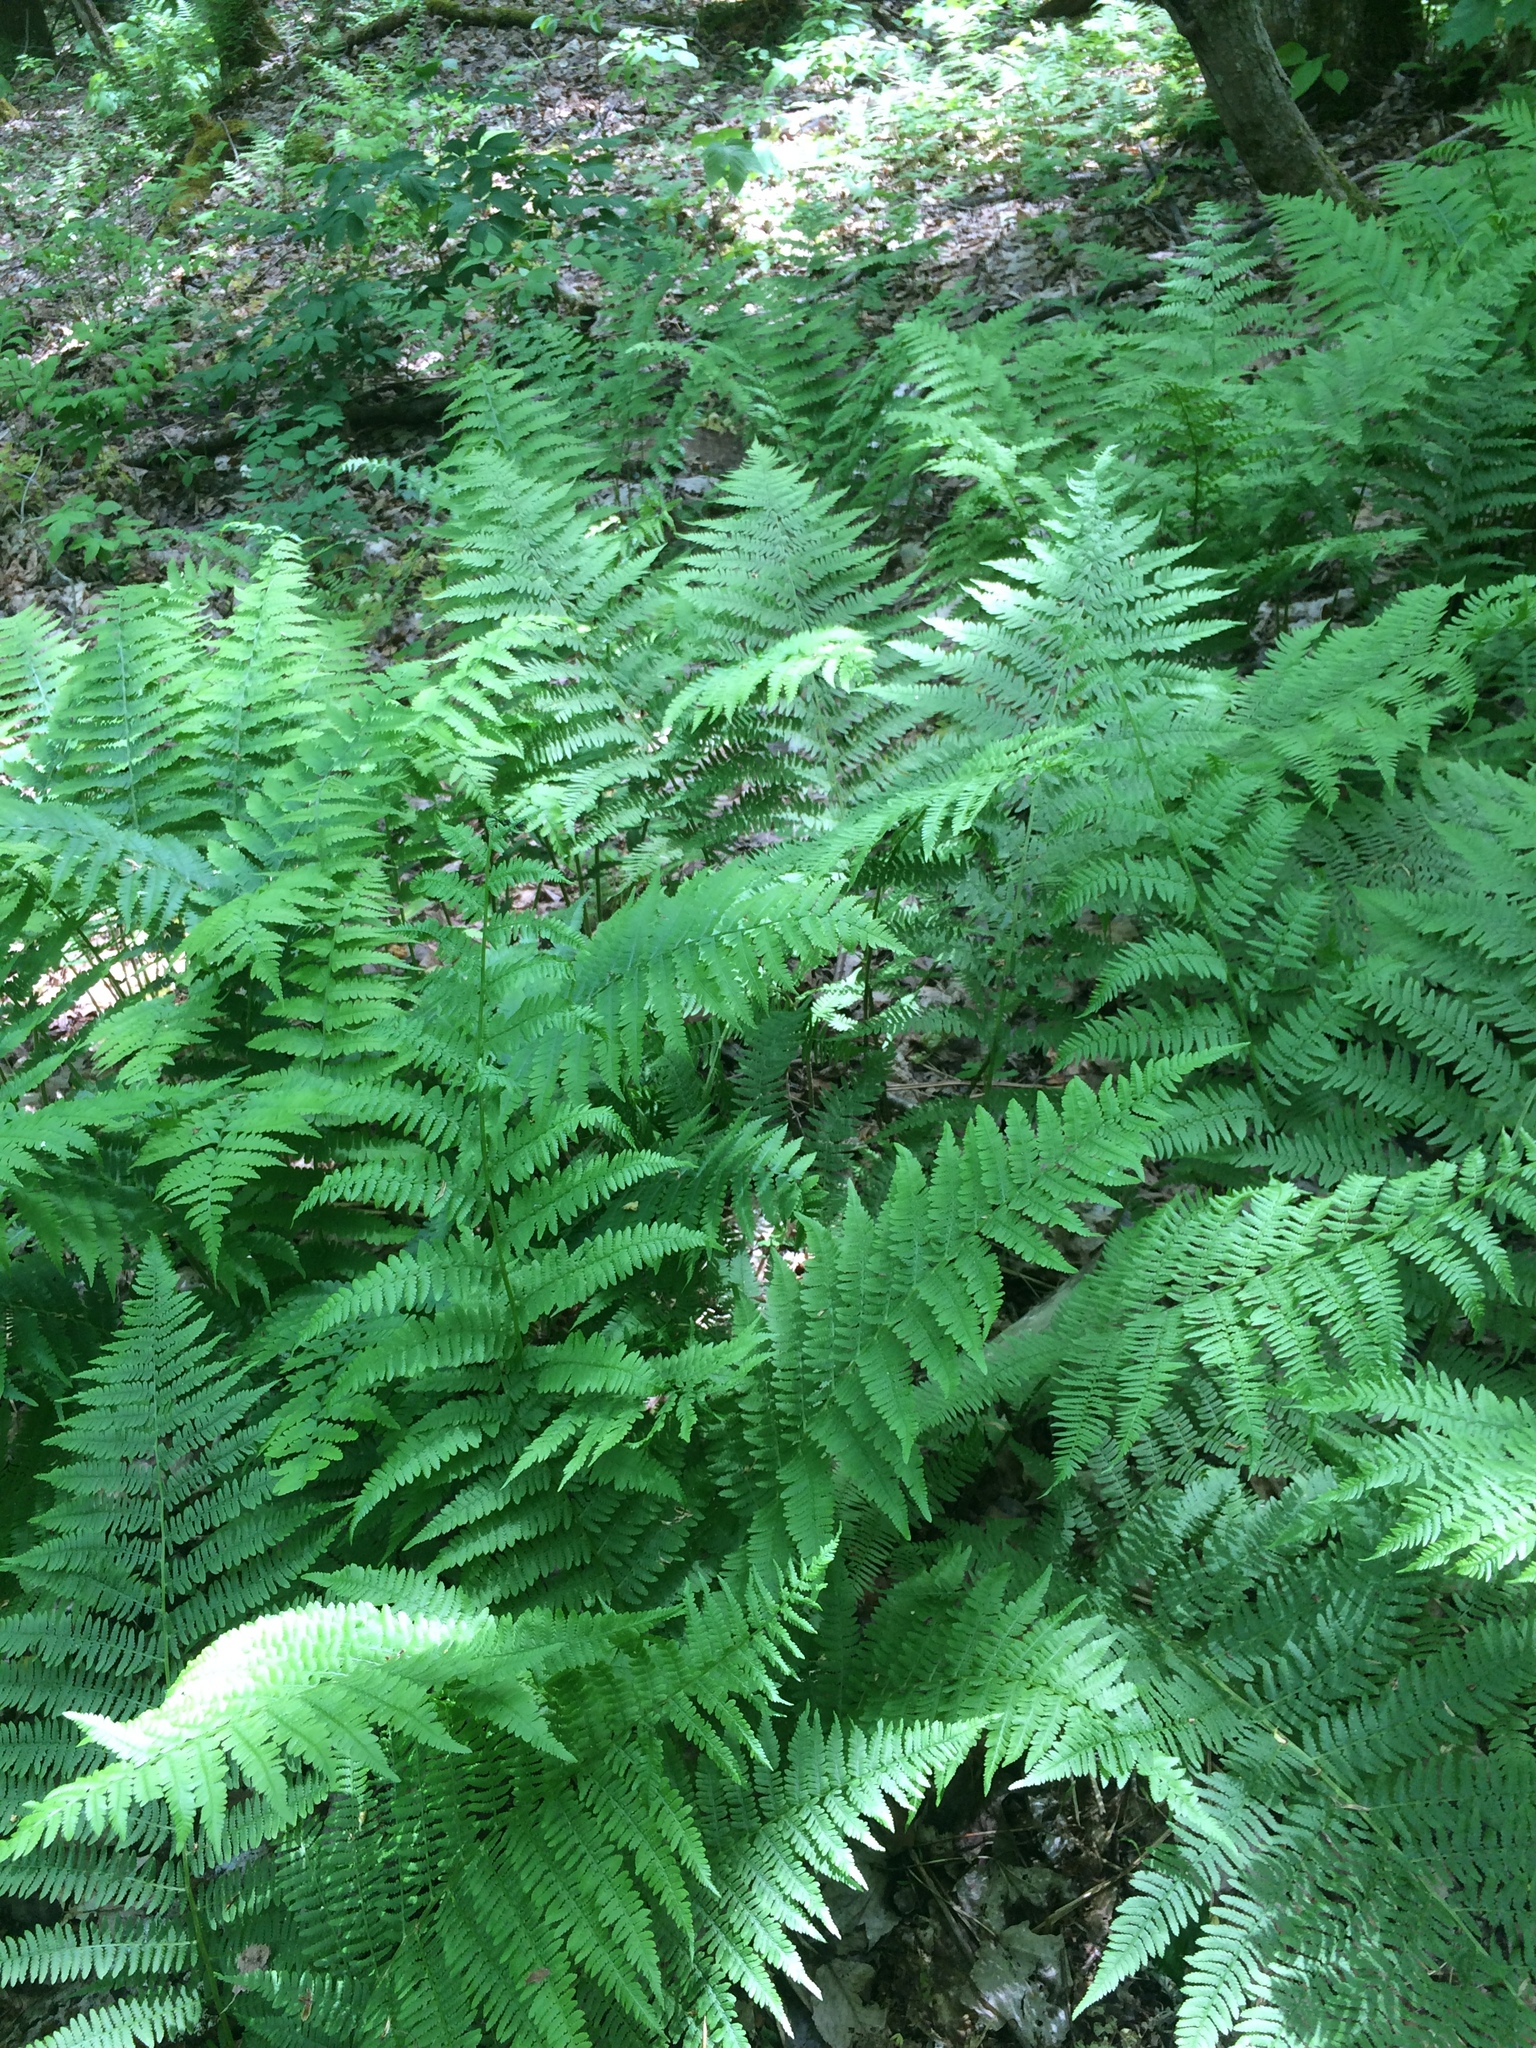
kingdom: Plantae
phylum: Tracheophyta
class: Polypodiopsida
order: Polypodiales
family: Athyriaceae
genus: Athyrium
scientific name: Athyrium angustum
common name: Northern lady fern
